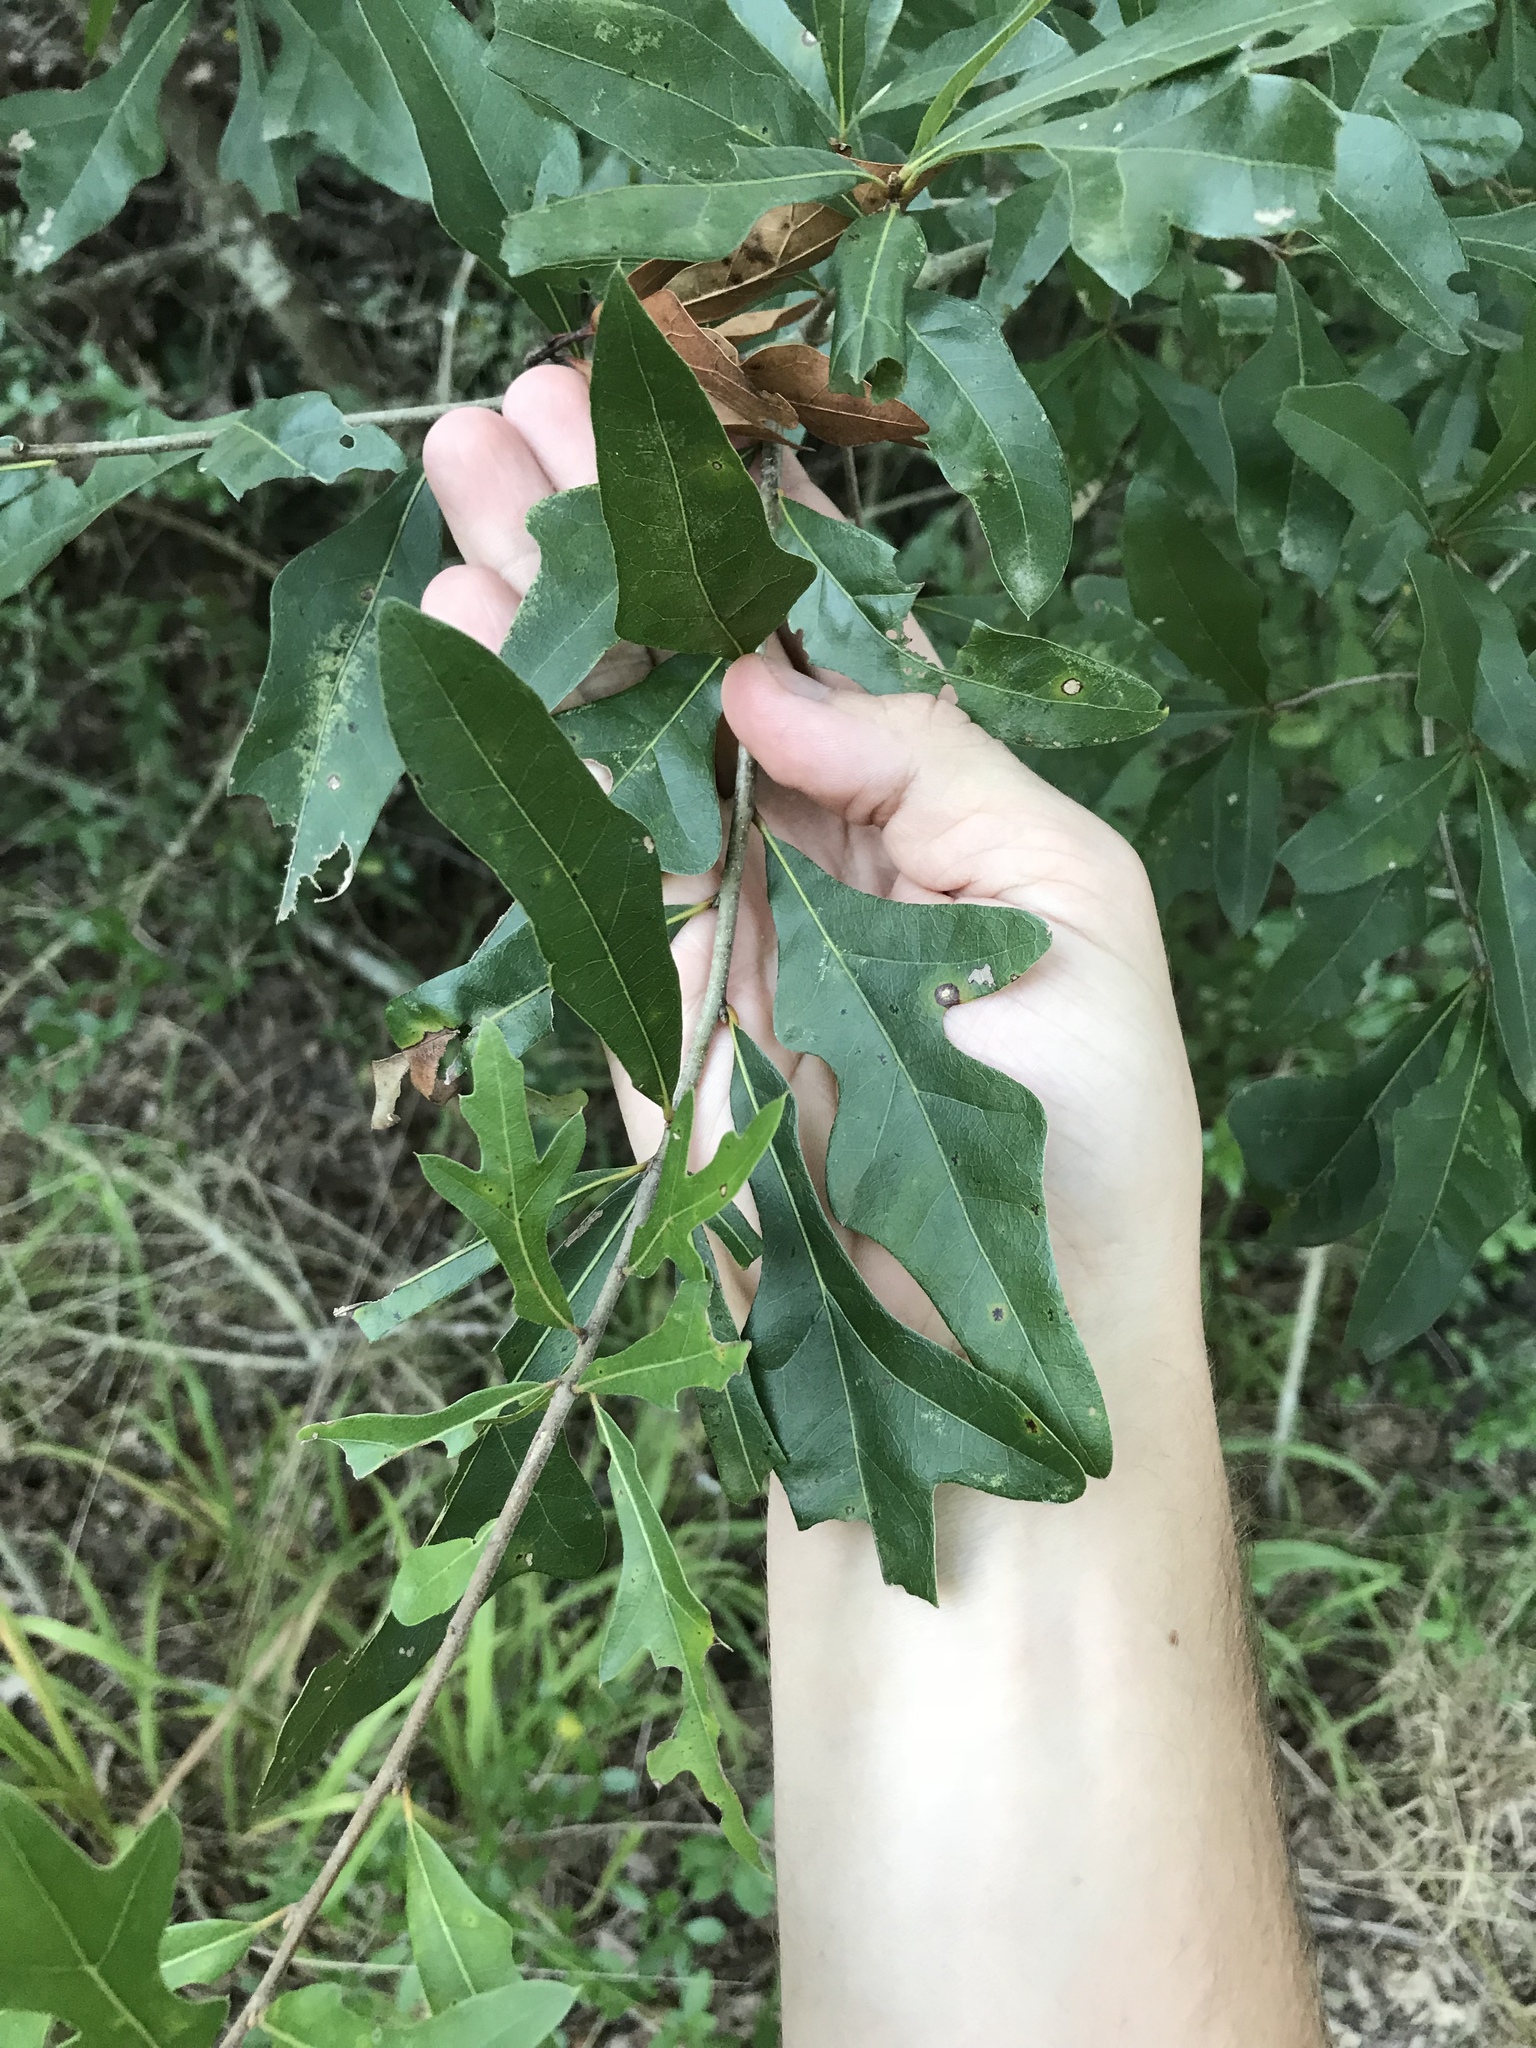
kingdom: Plantae
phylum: Tracheophyta
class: Magnoliopsida
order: Fagales
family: Fagaceae
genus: Quercus
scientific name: Quercus nigra
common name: Water oak
